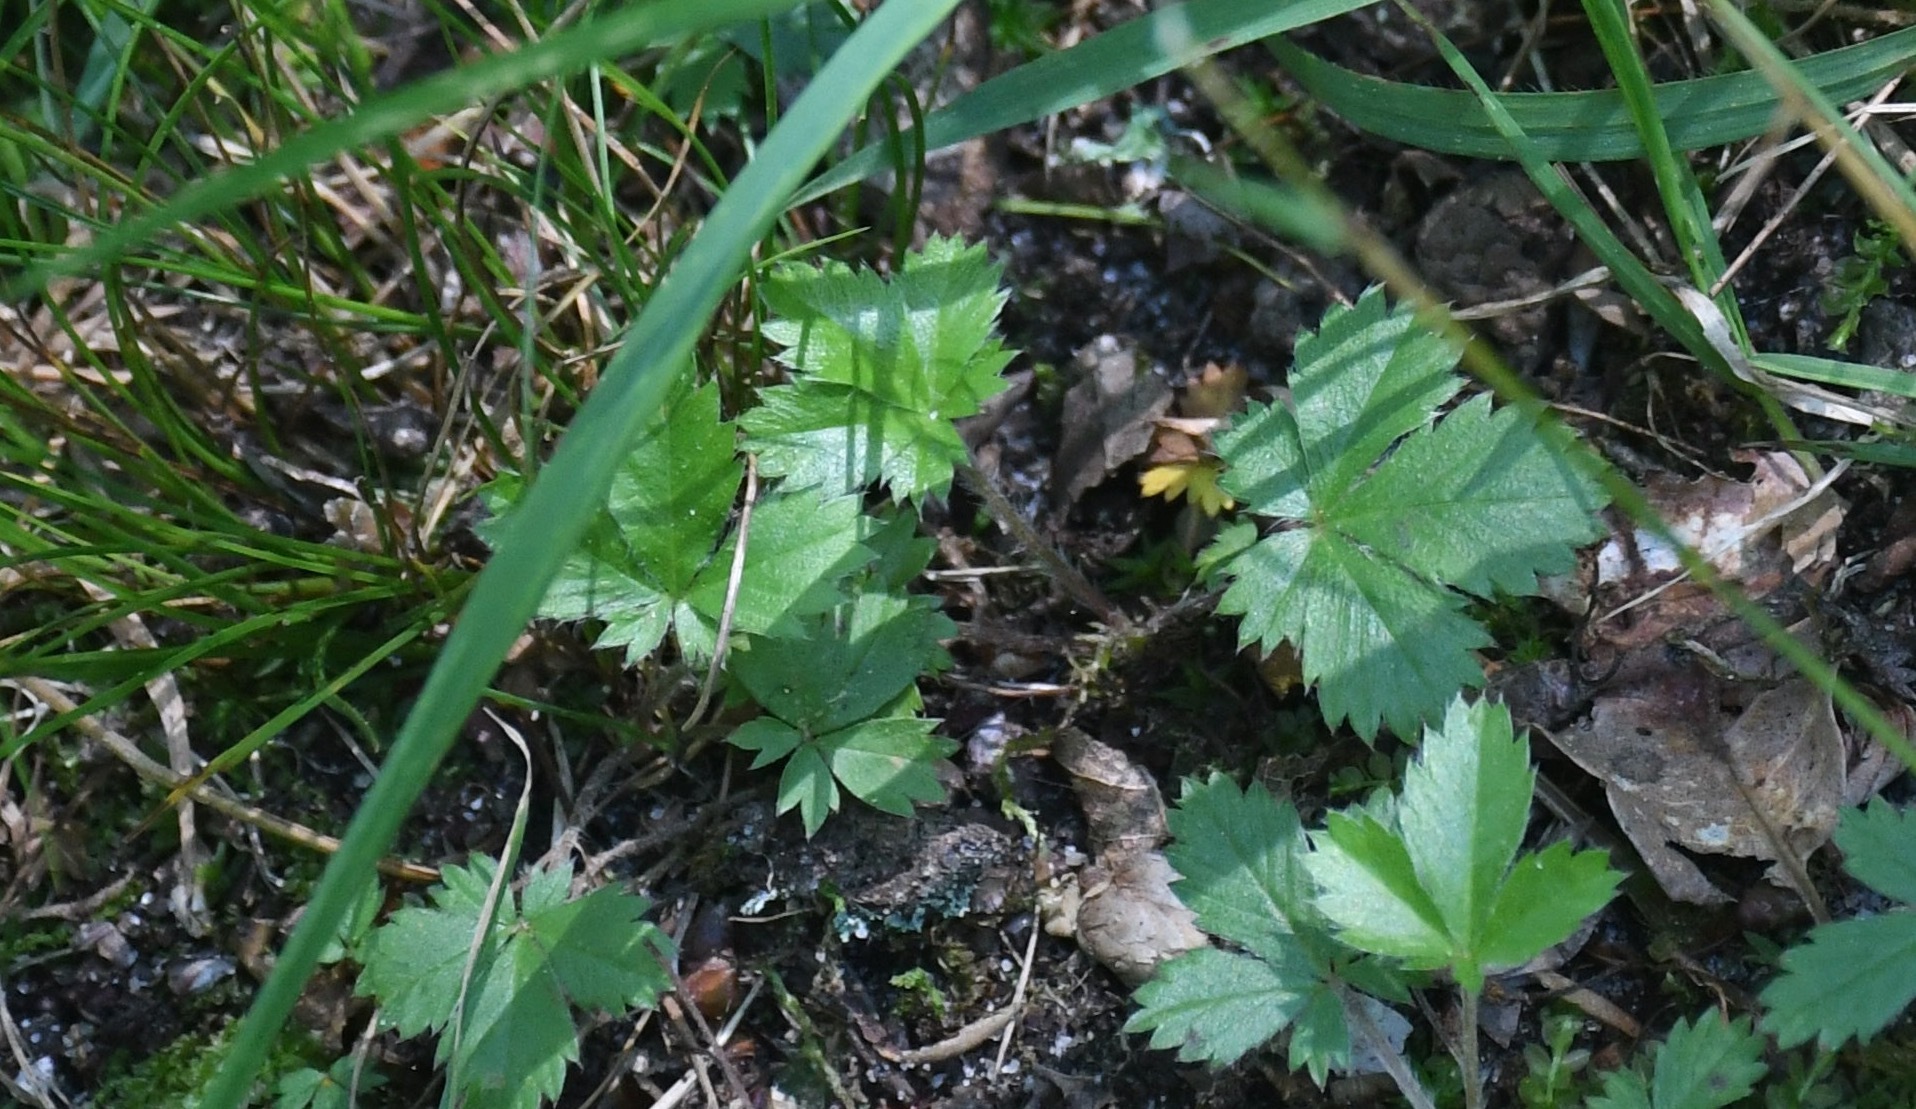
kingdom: Plantae
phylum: Tracheophyta
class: Magnoliopsida
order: Rosales
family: Rosaceae
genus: Potentilla
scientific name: Potentilla canadensis
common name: Canada cinquefoil
